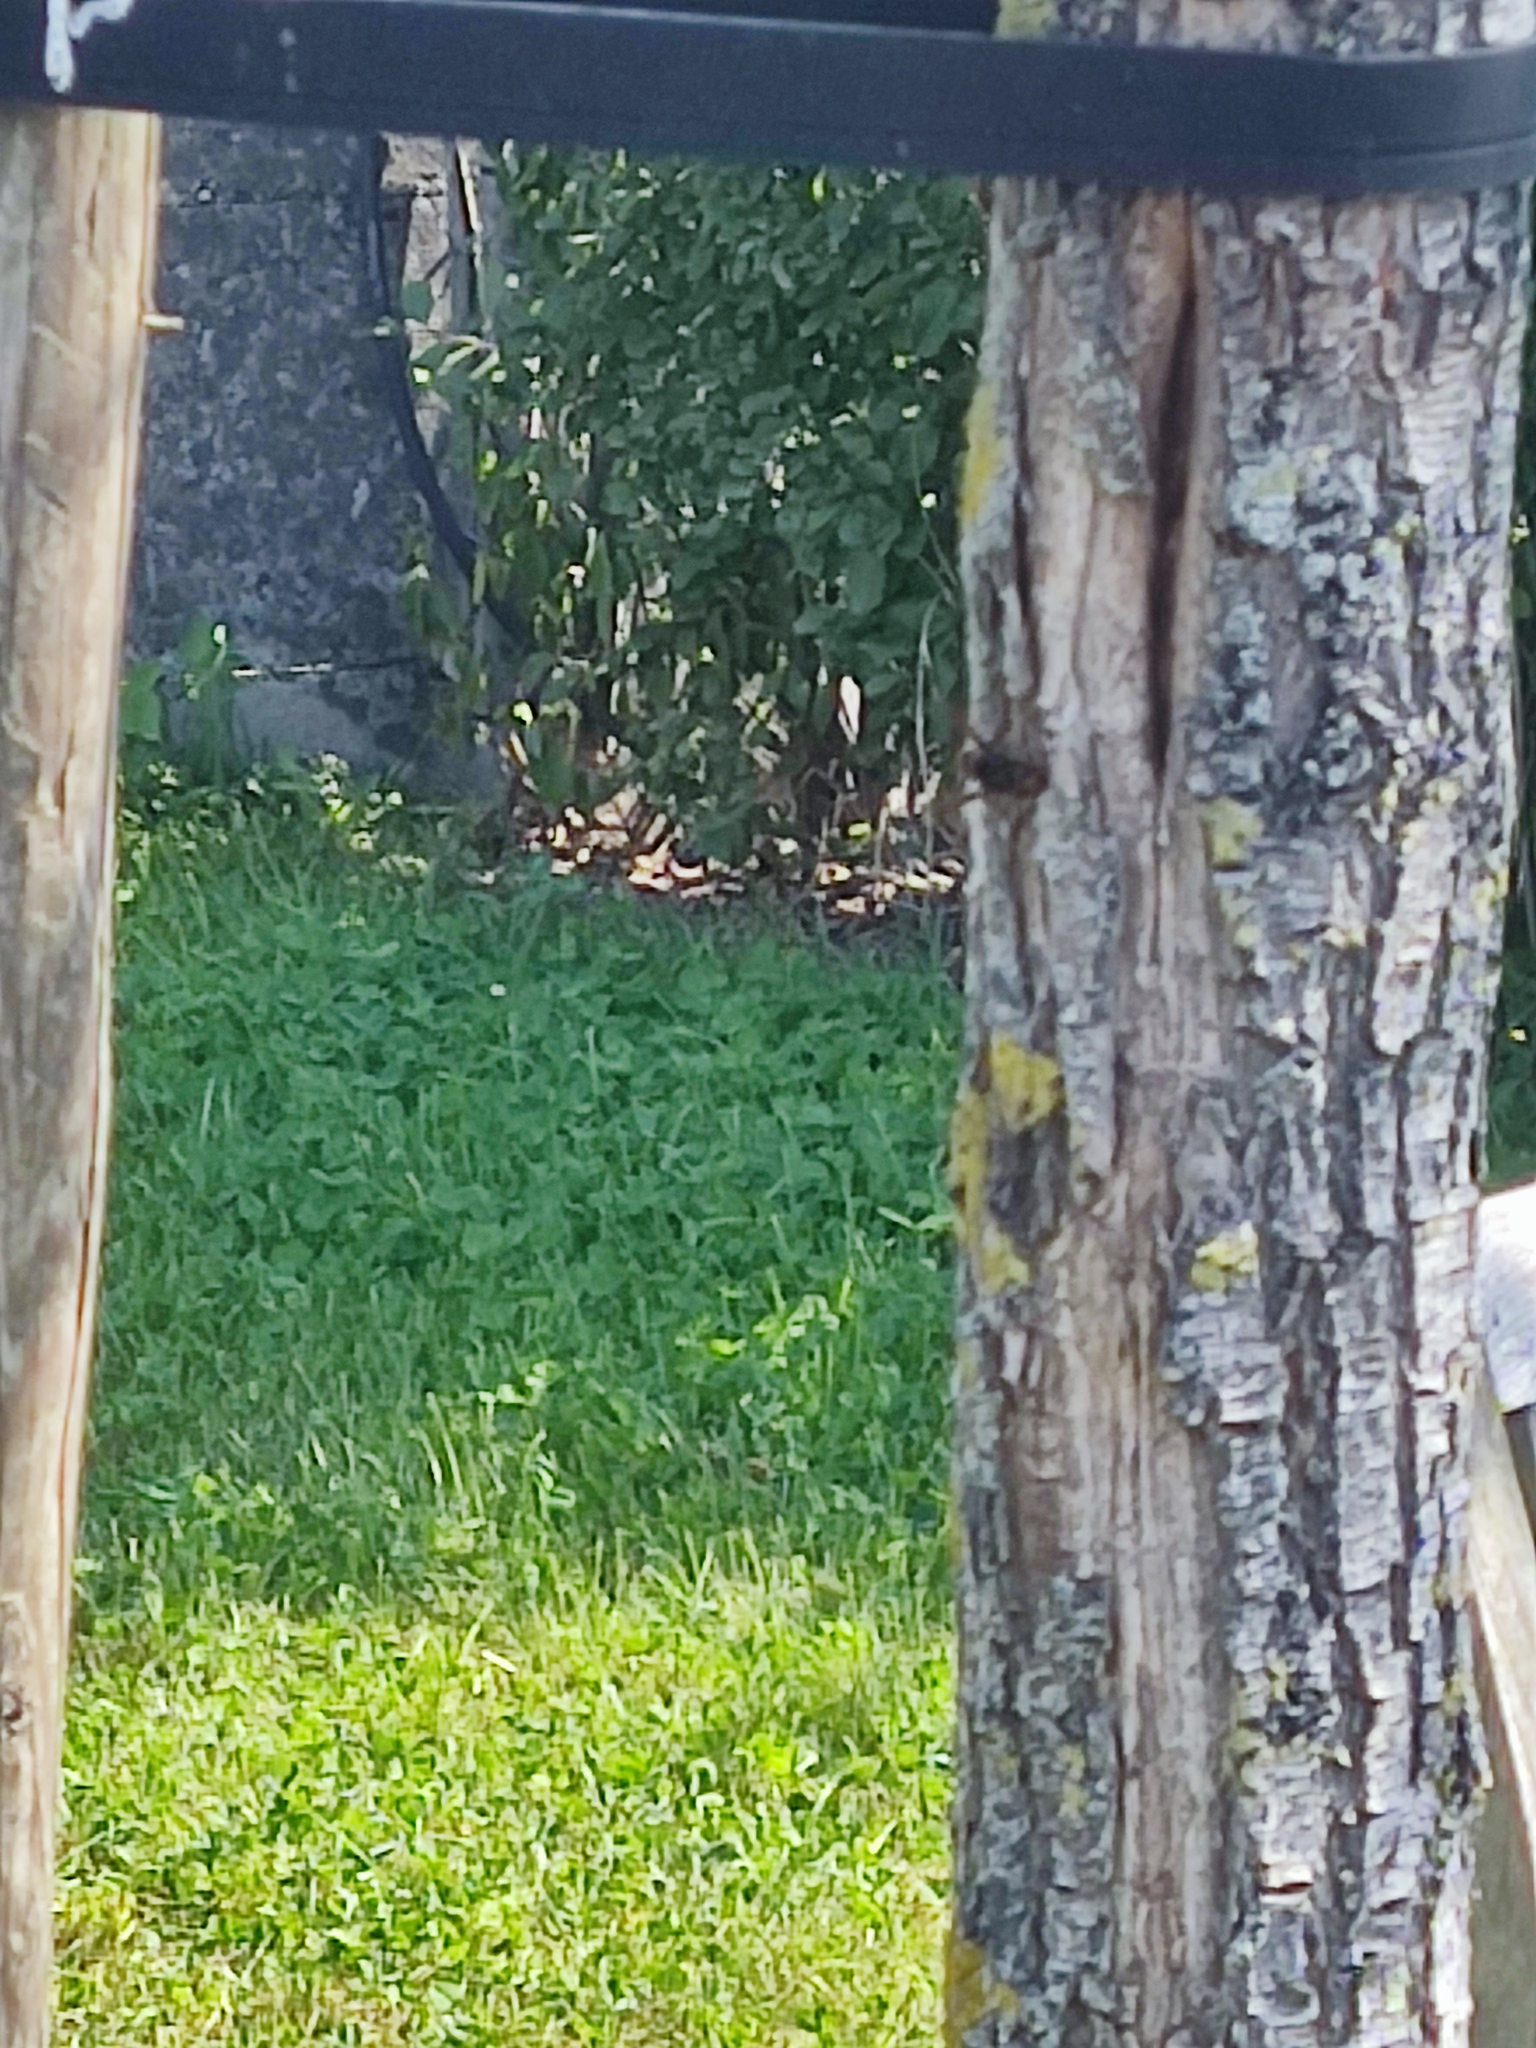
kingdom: Animalia
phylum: Arthropoda
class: Insecta
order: Hymenoptera
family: Vespidae
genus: Vespa
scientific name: Vespa crabro
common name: Hornet
